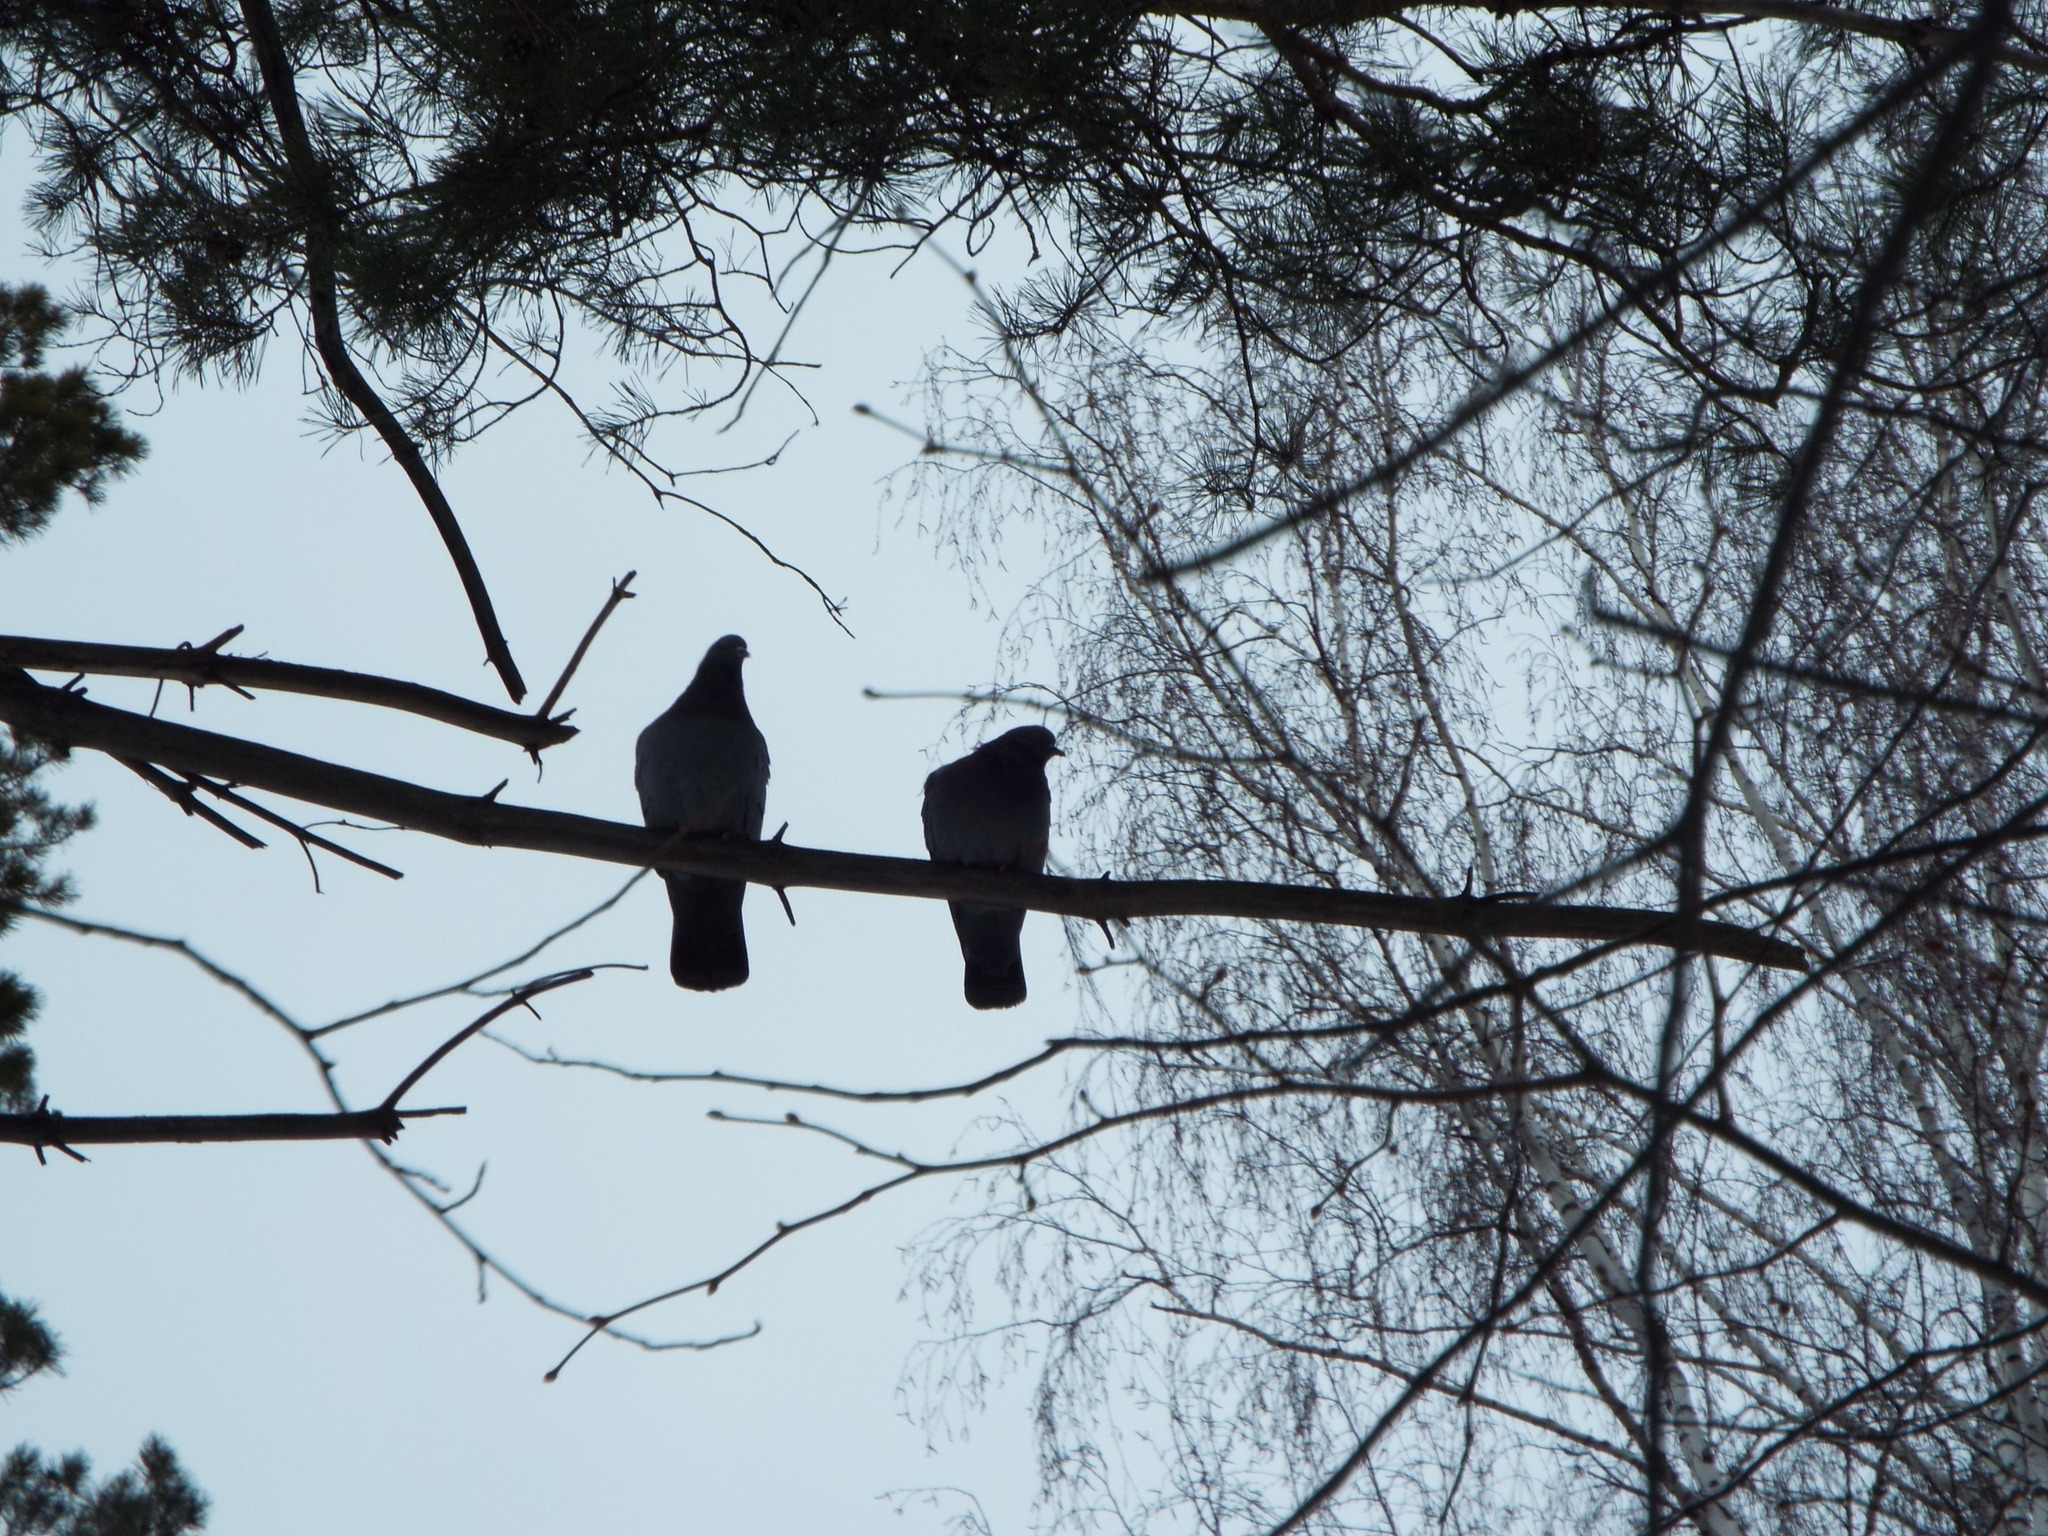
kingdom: Animalia
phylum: Chordata
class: Aves
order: Columbiformes
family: Columbidae
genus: Columba
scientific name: Columba livia
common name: Rock pigeon
